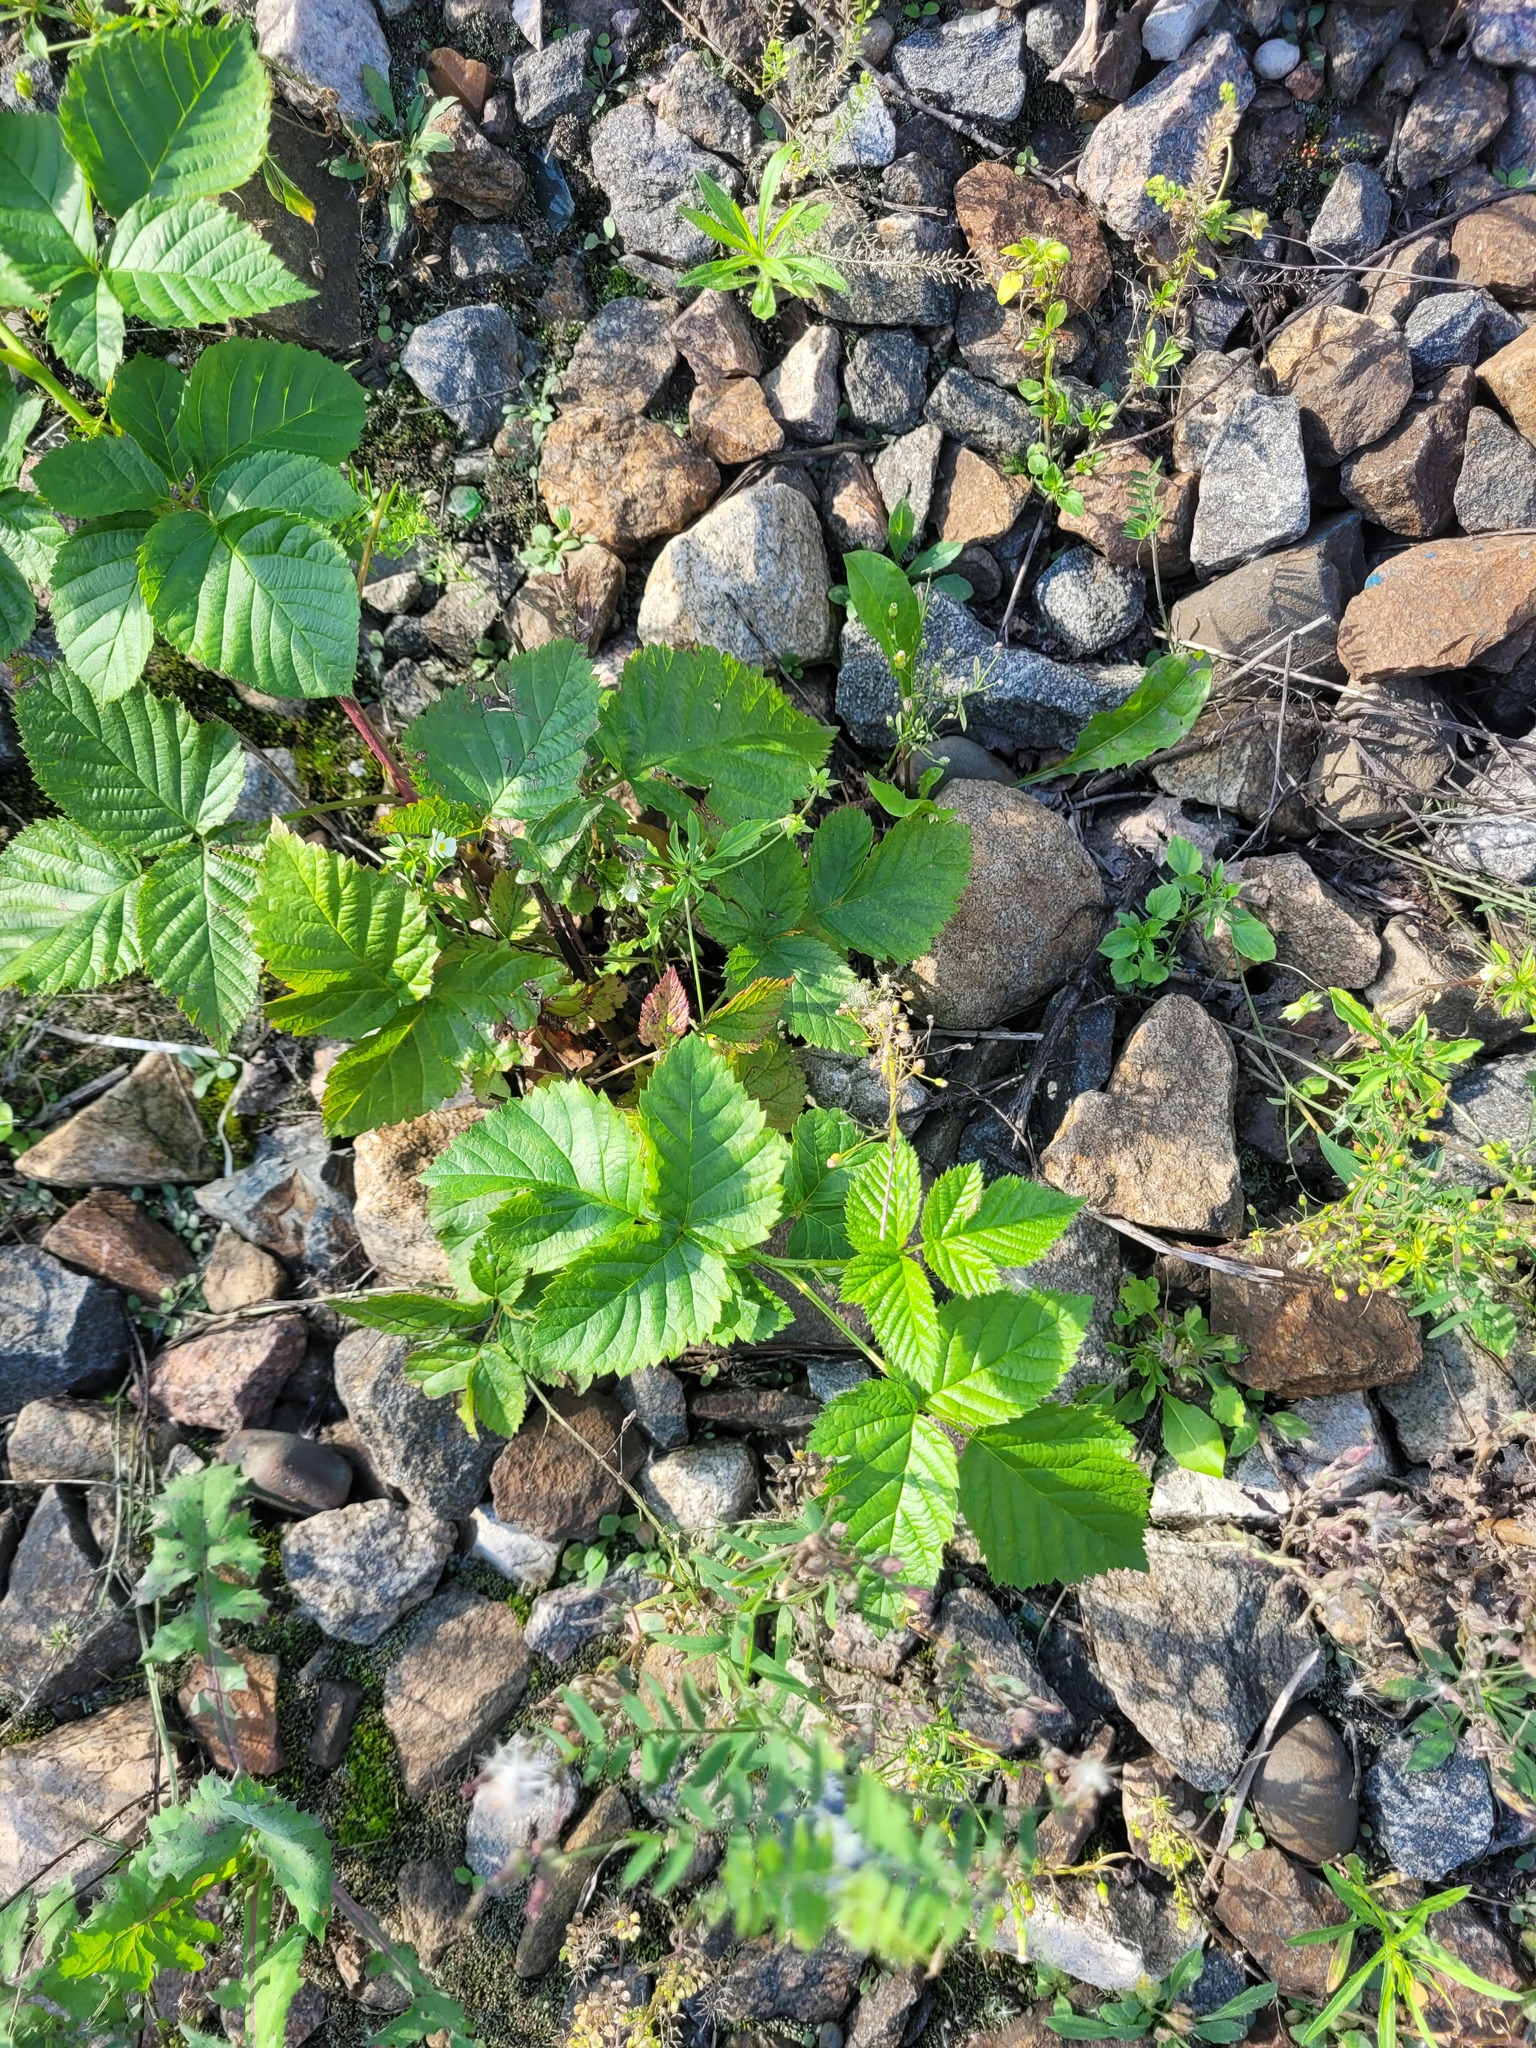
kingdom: Plantae
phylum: Tracheophyta
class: Magnoliopsida
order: Rosales
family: Rosaceae
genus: Rubus
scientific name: Rubus polonicus
